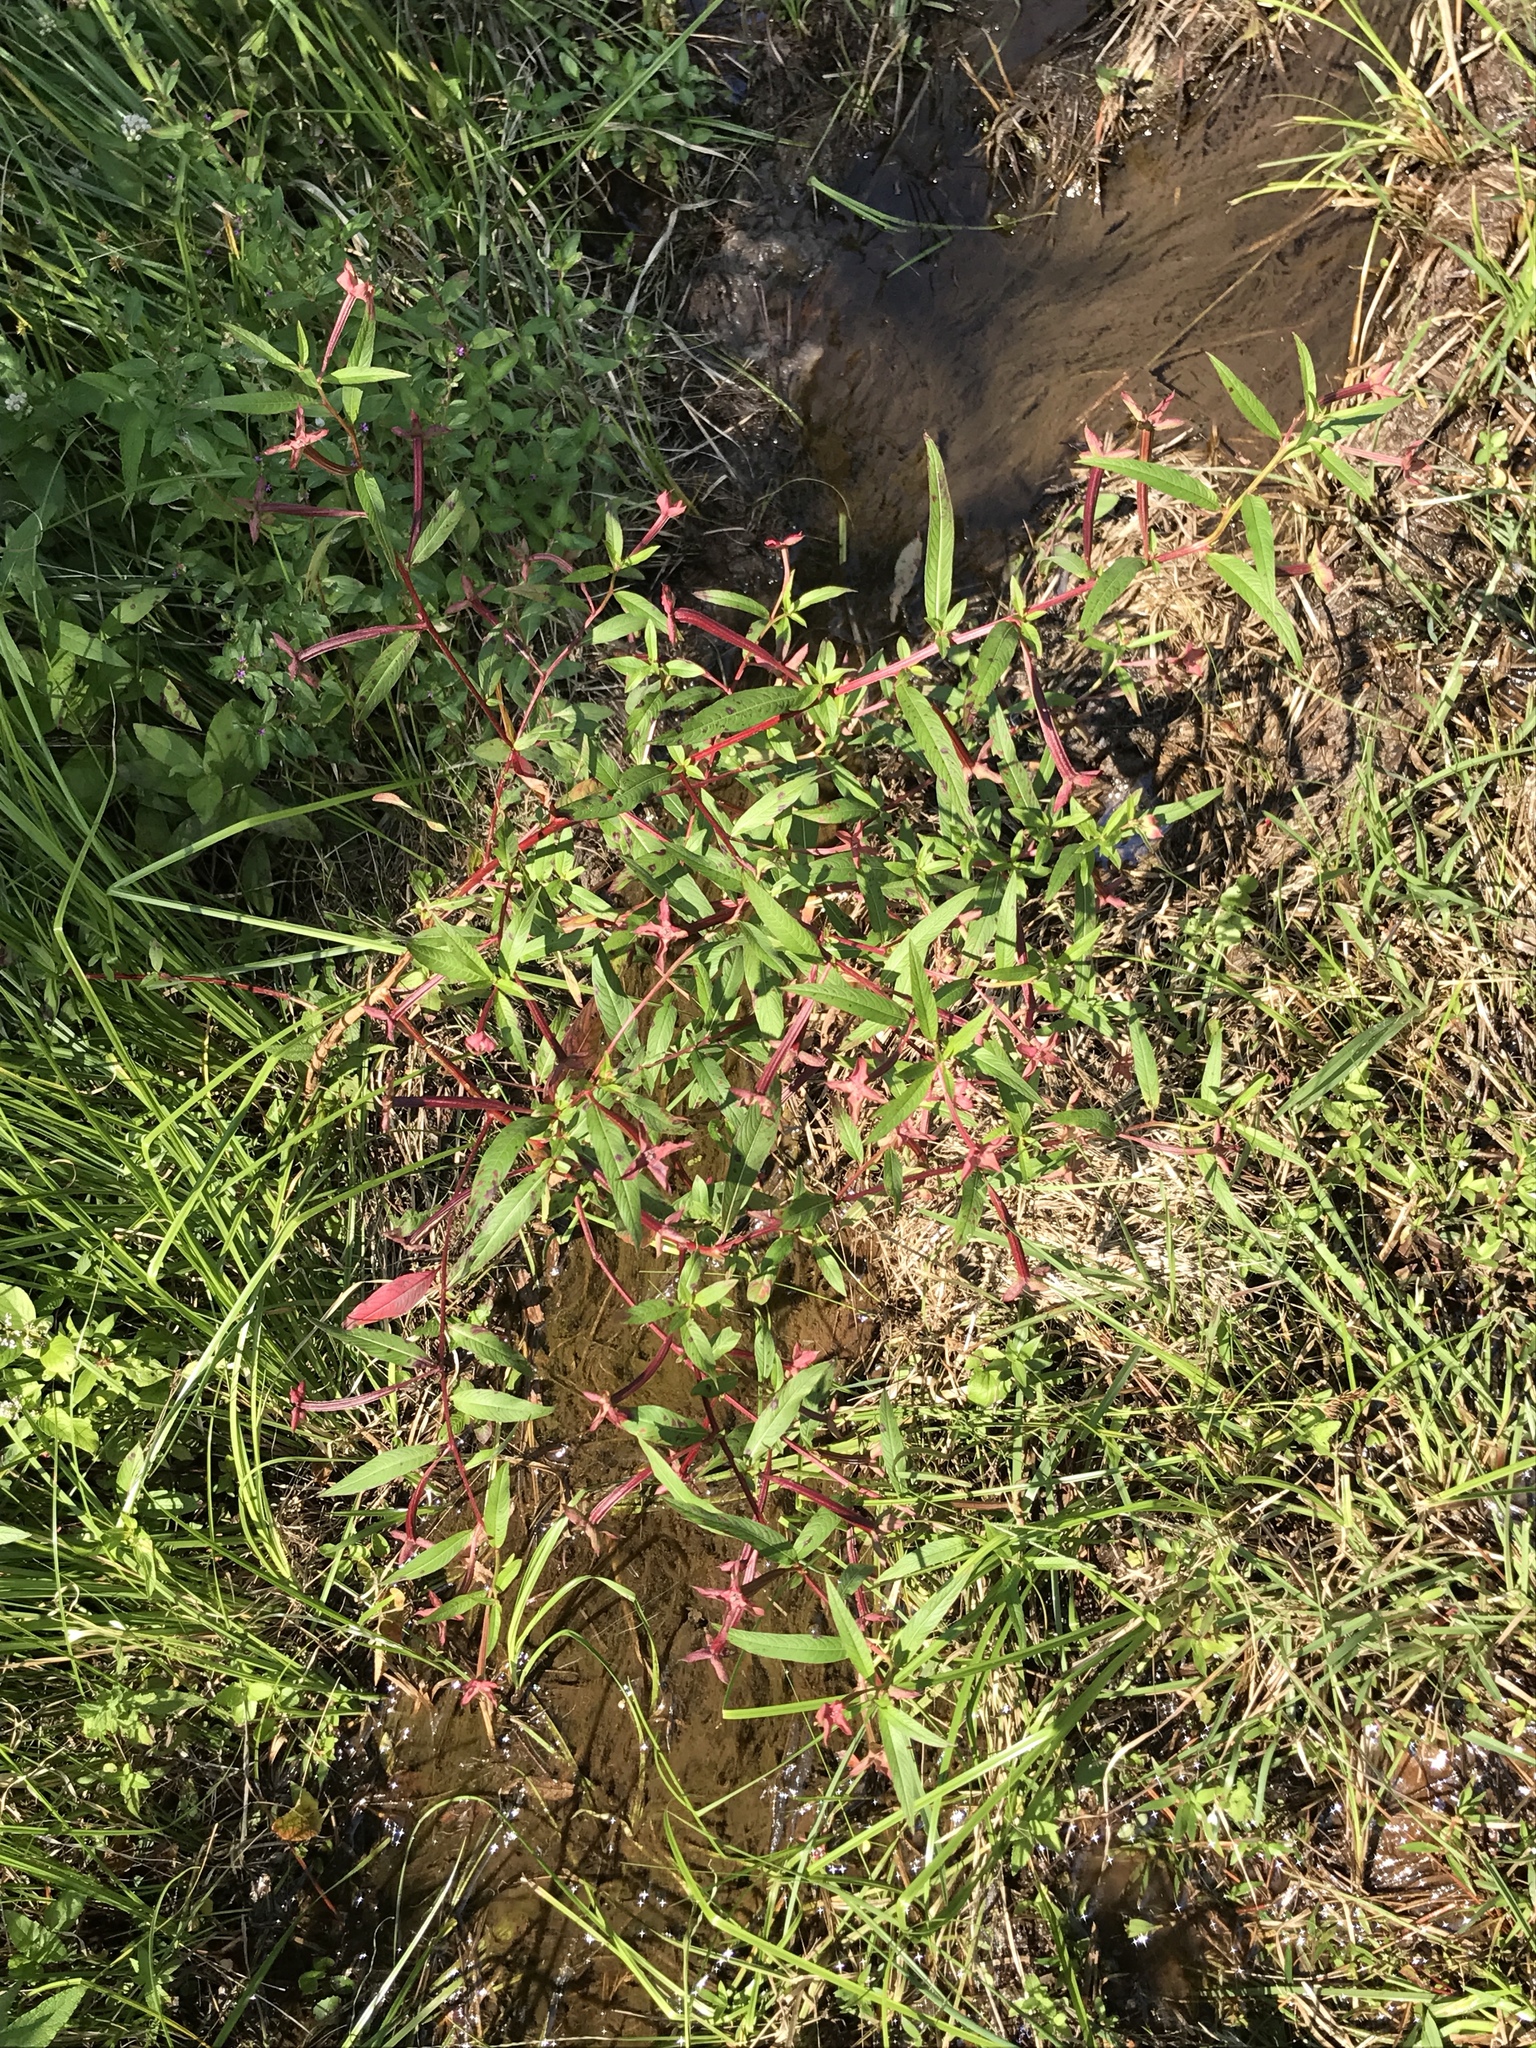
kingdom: Plantae
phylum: Tracheophyta
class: Magnoliopsida
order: Myrtales
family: Onagraceae
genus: Ludwigia
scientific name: Ludwigia octovalvis
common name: Water-primrose
